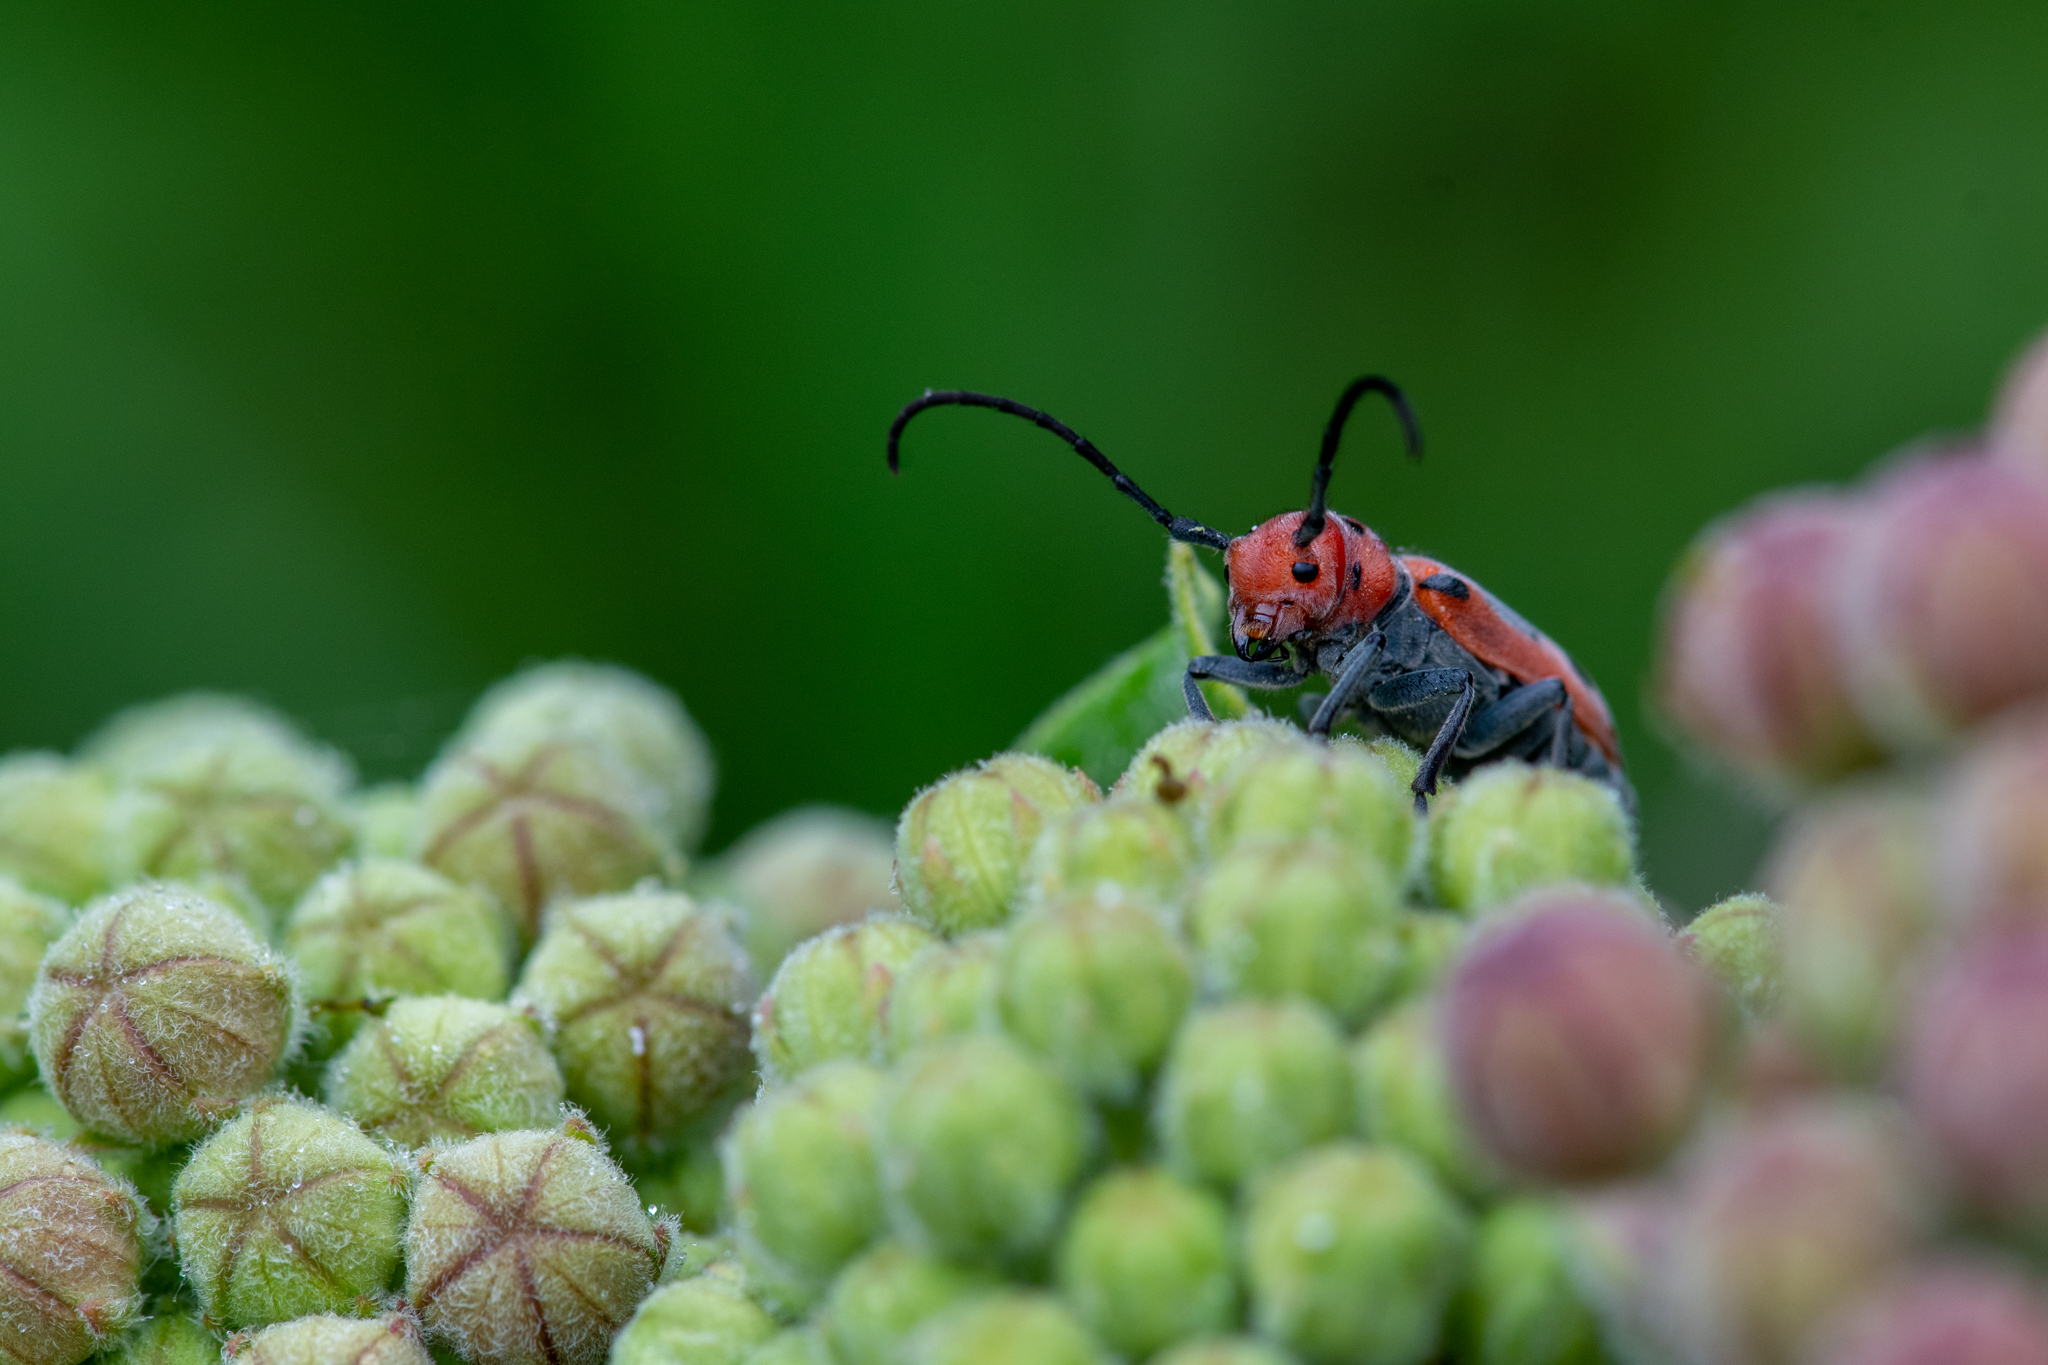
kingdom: Animalia
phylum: Arthropoda
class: Insecta
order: Coleoptera
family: Cerambycidae
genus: Tetraopes
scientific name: Tetraopes tetrophthalmus
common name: Red milkweed beetle
